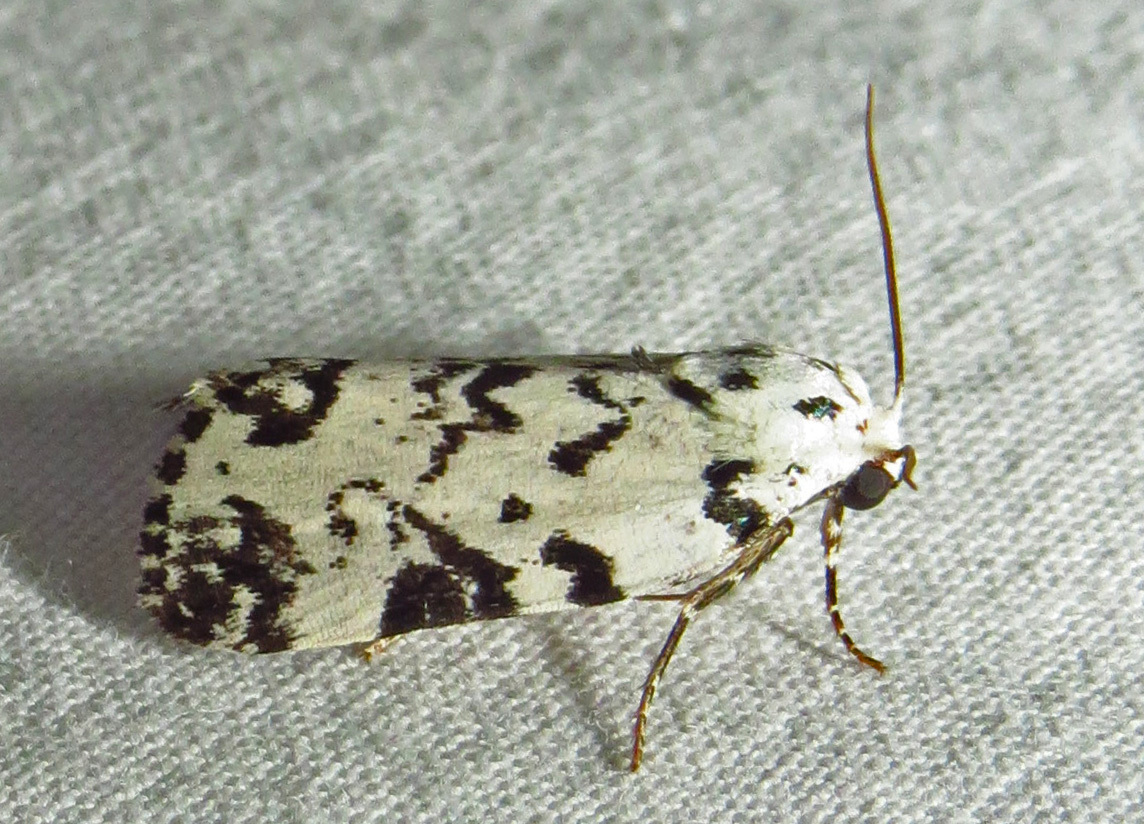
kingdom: Animalia
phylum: Arthropoda
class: Insecta
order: Lepidoptera
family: Noctuidae
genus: Polygrammate
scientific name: Polygrammate hebraeicum
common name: Hebrew moth
